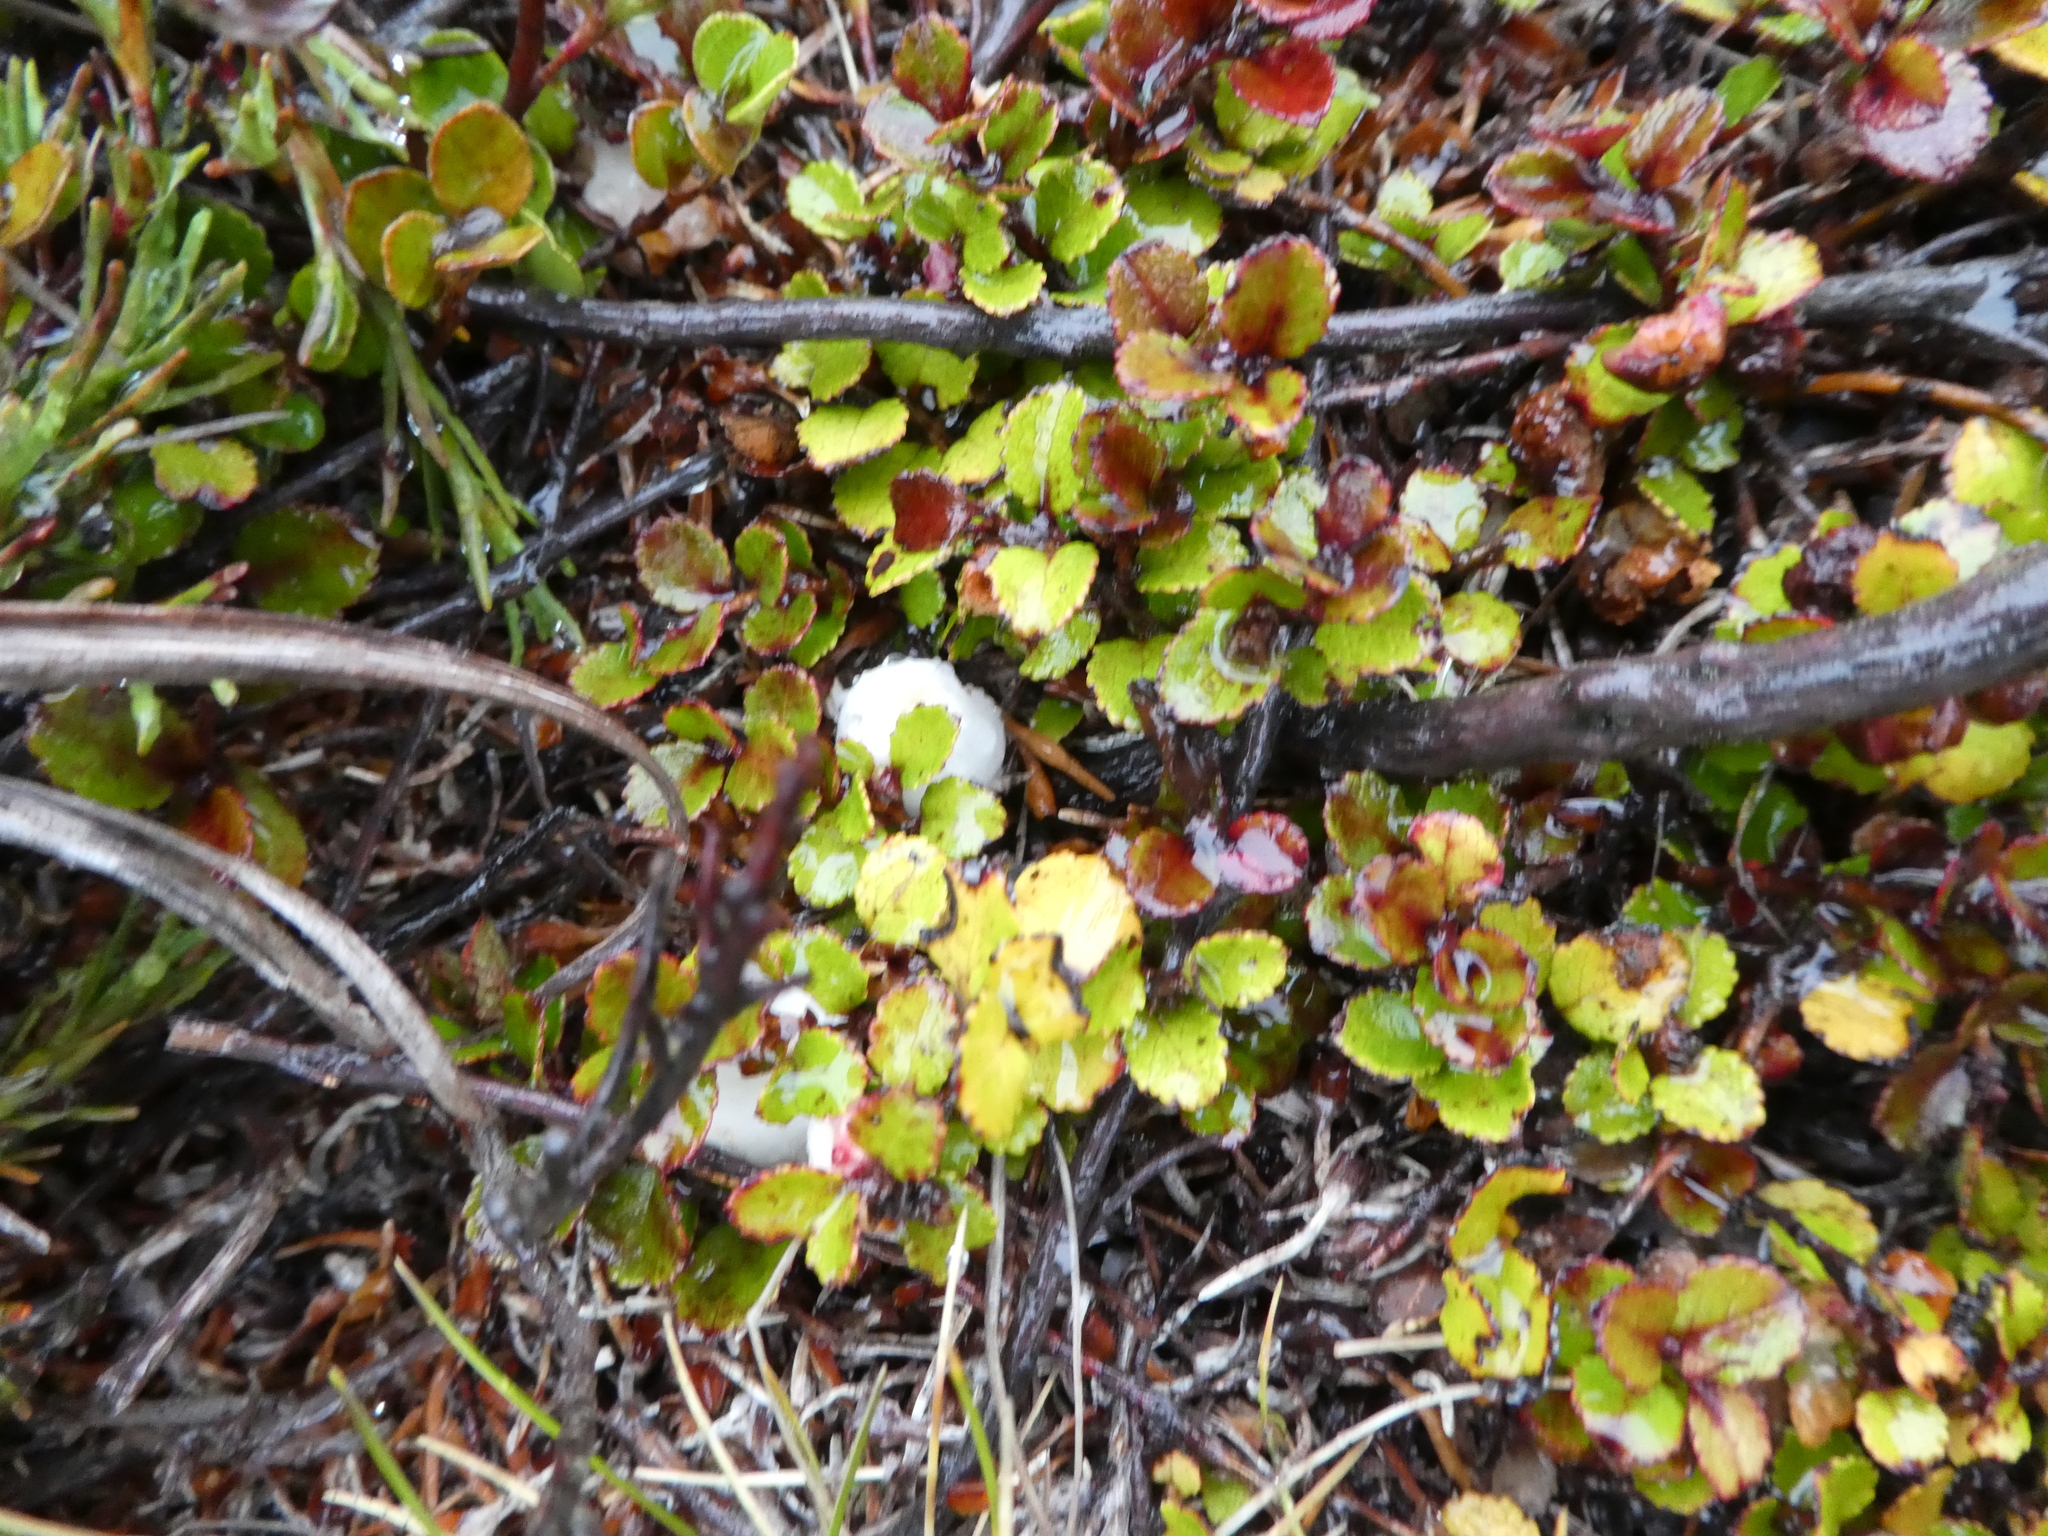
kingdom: Plantae
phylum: Tracheophyta
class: Magnoliopsida
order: Ericales
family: Ericaceae
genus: Gaultheria
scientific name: Gaultheria depressa
